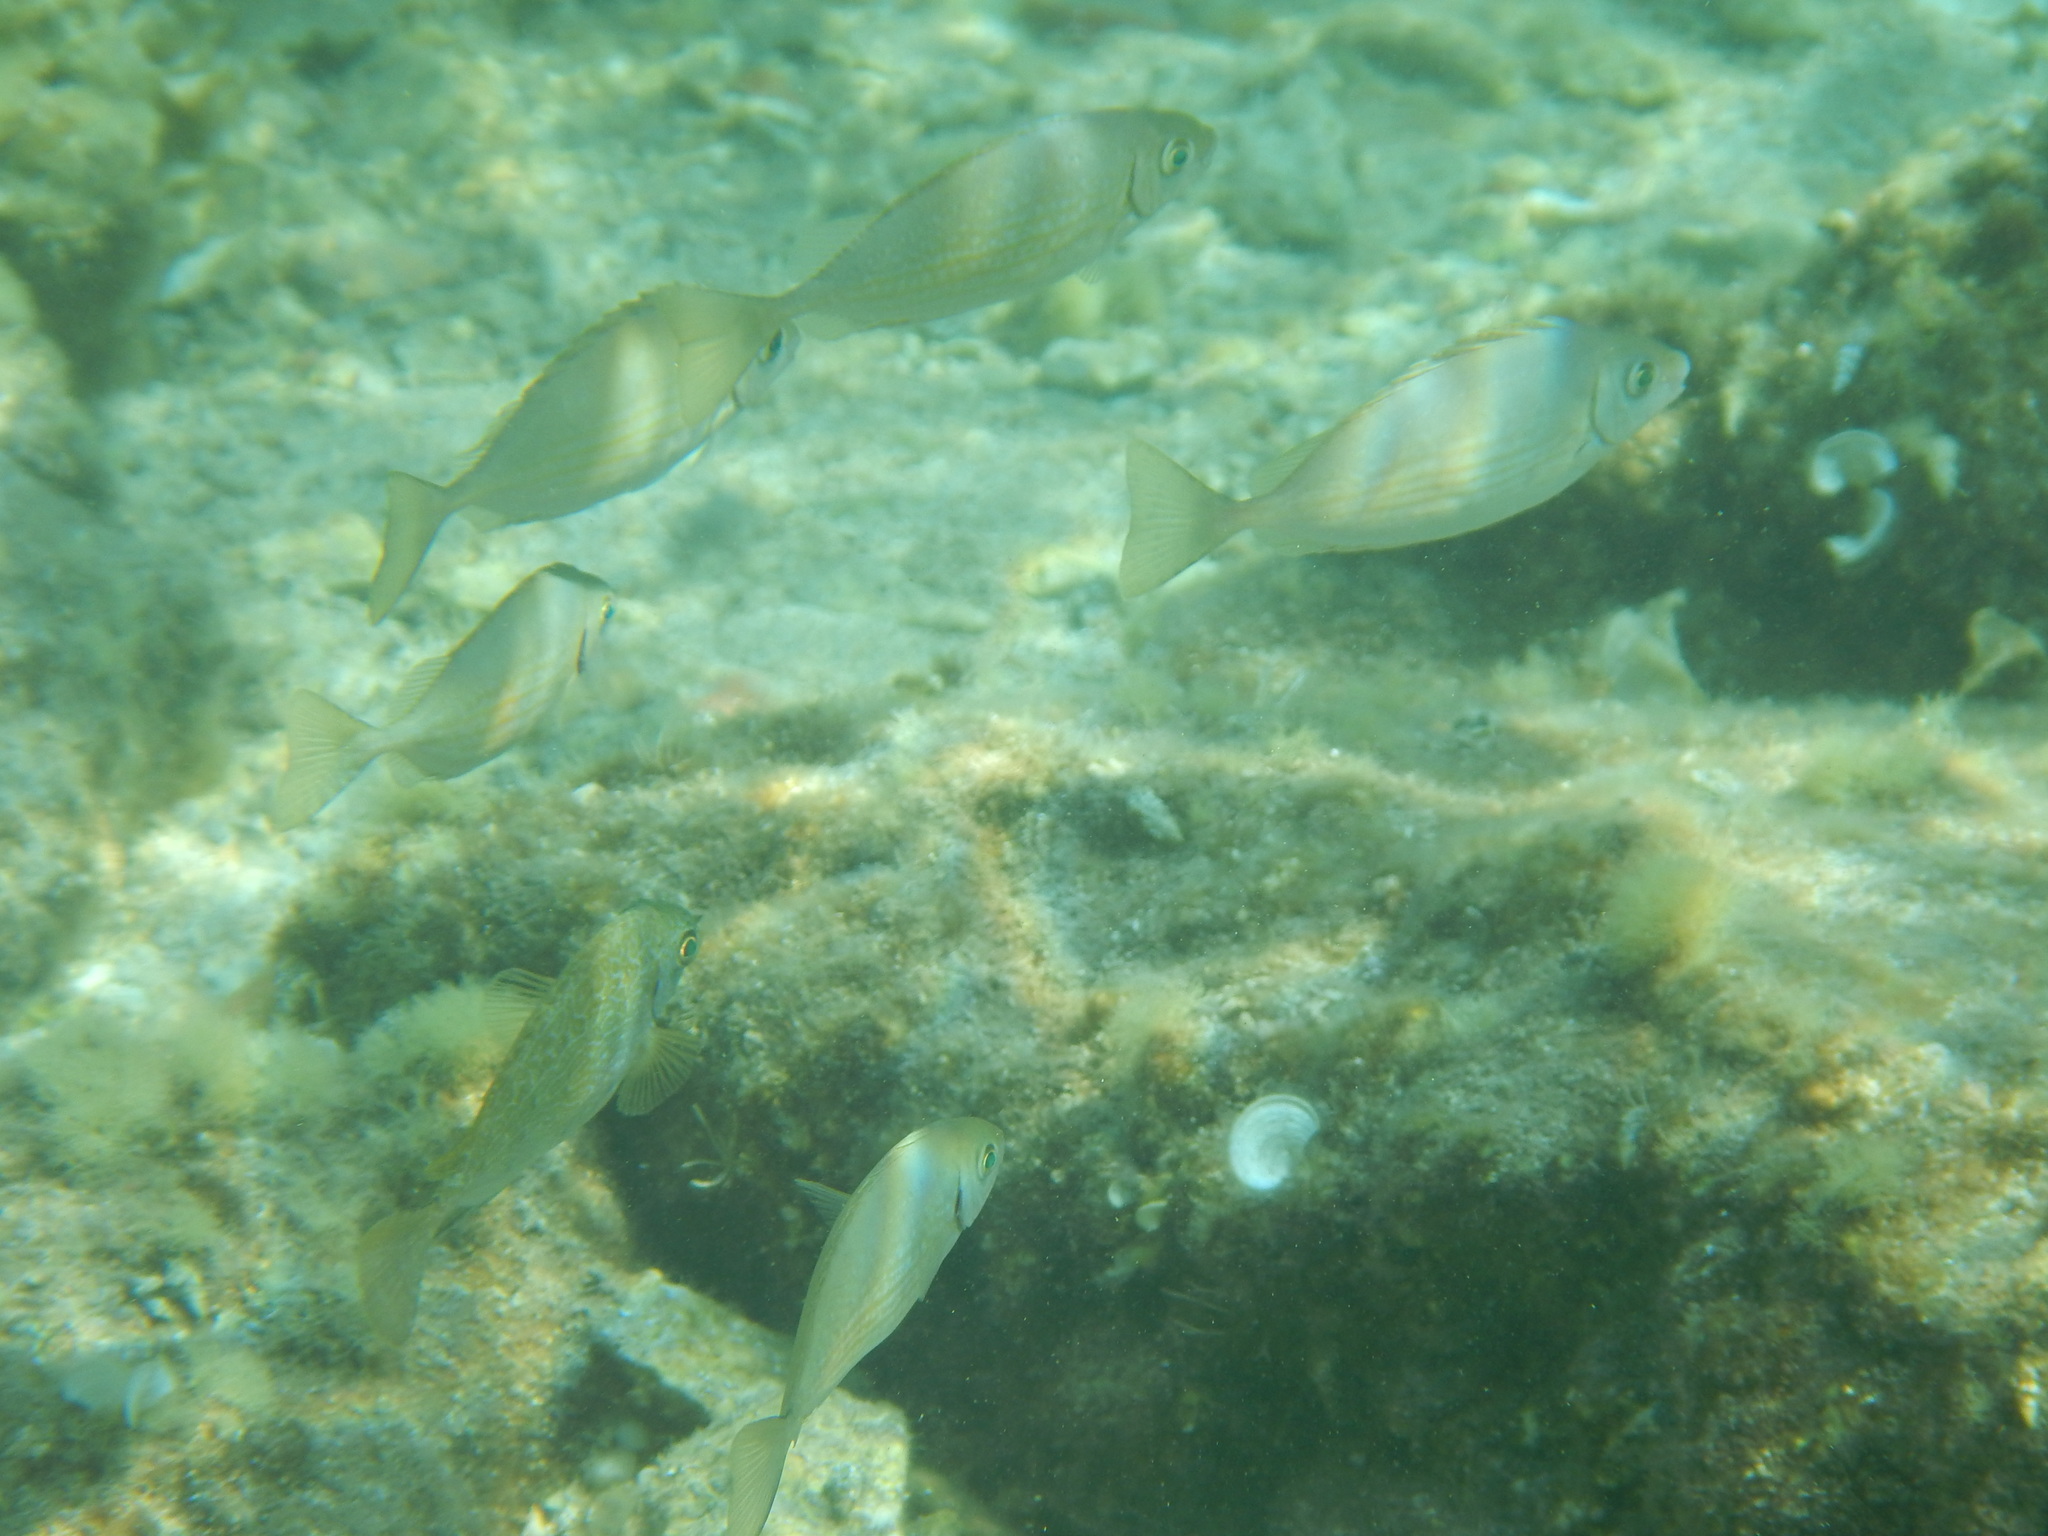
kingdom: Animalia
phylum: Chordata
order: Perciformes
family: Siganidae
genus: Siganus
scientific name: Siganus rivulatus
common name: Marbled spinefoot
